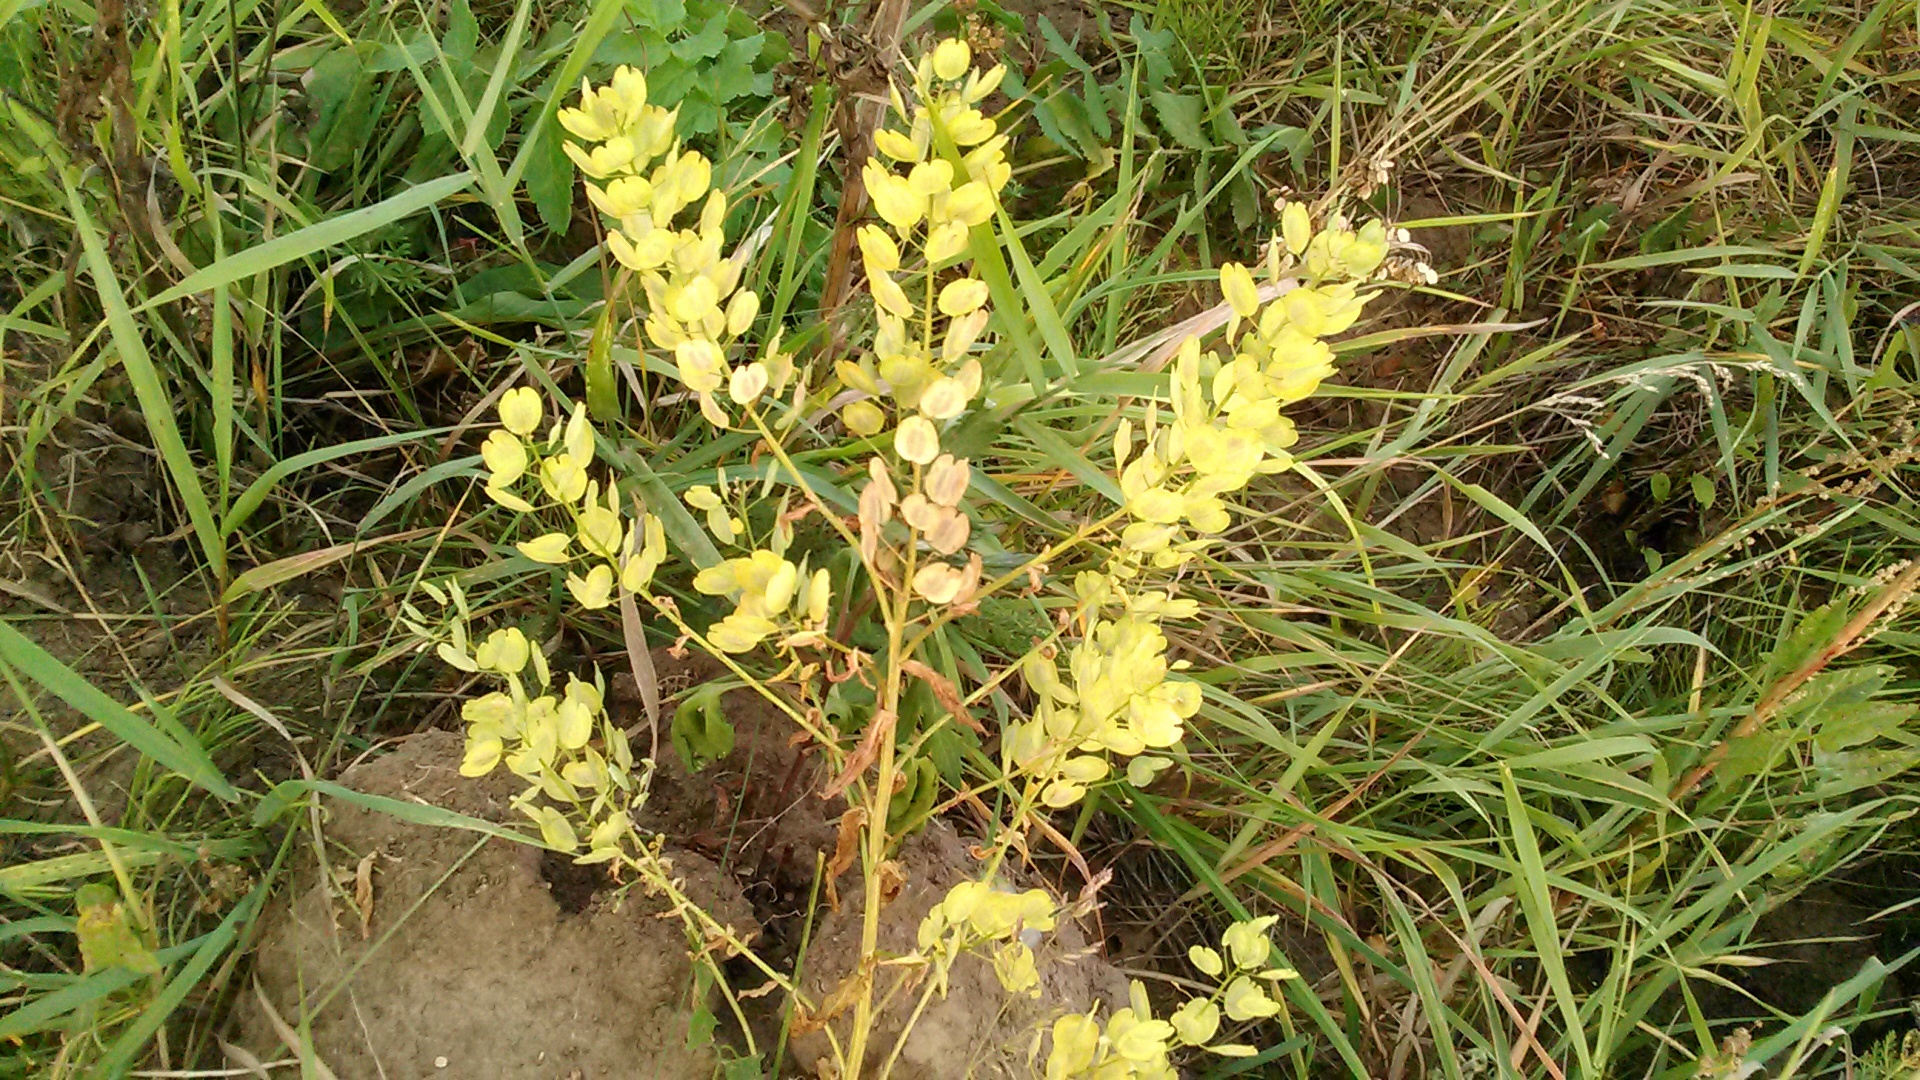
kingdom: Plantae
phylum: Tracheophyta
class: Magnoliopsida
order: Brassicales
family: Brassicaceae
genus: Thlaspi
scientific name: Thlaspi arvense
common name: Field pennycress
